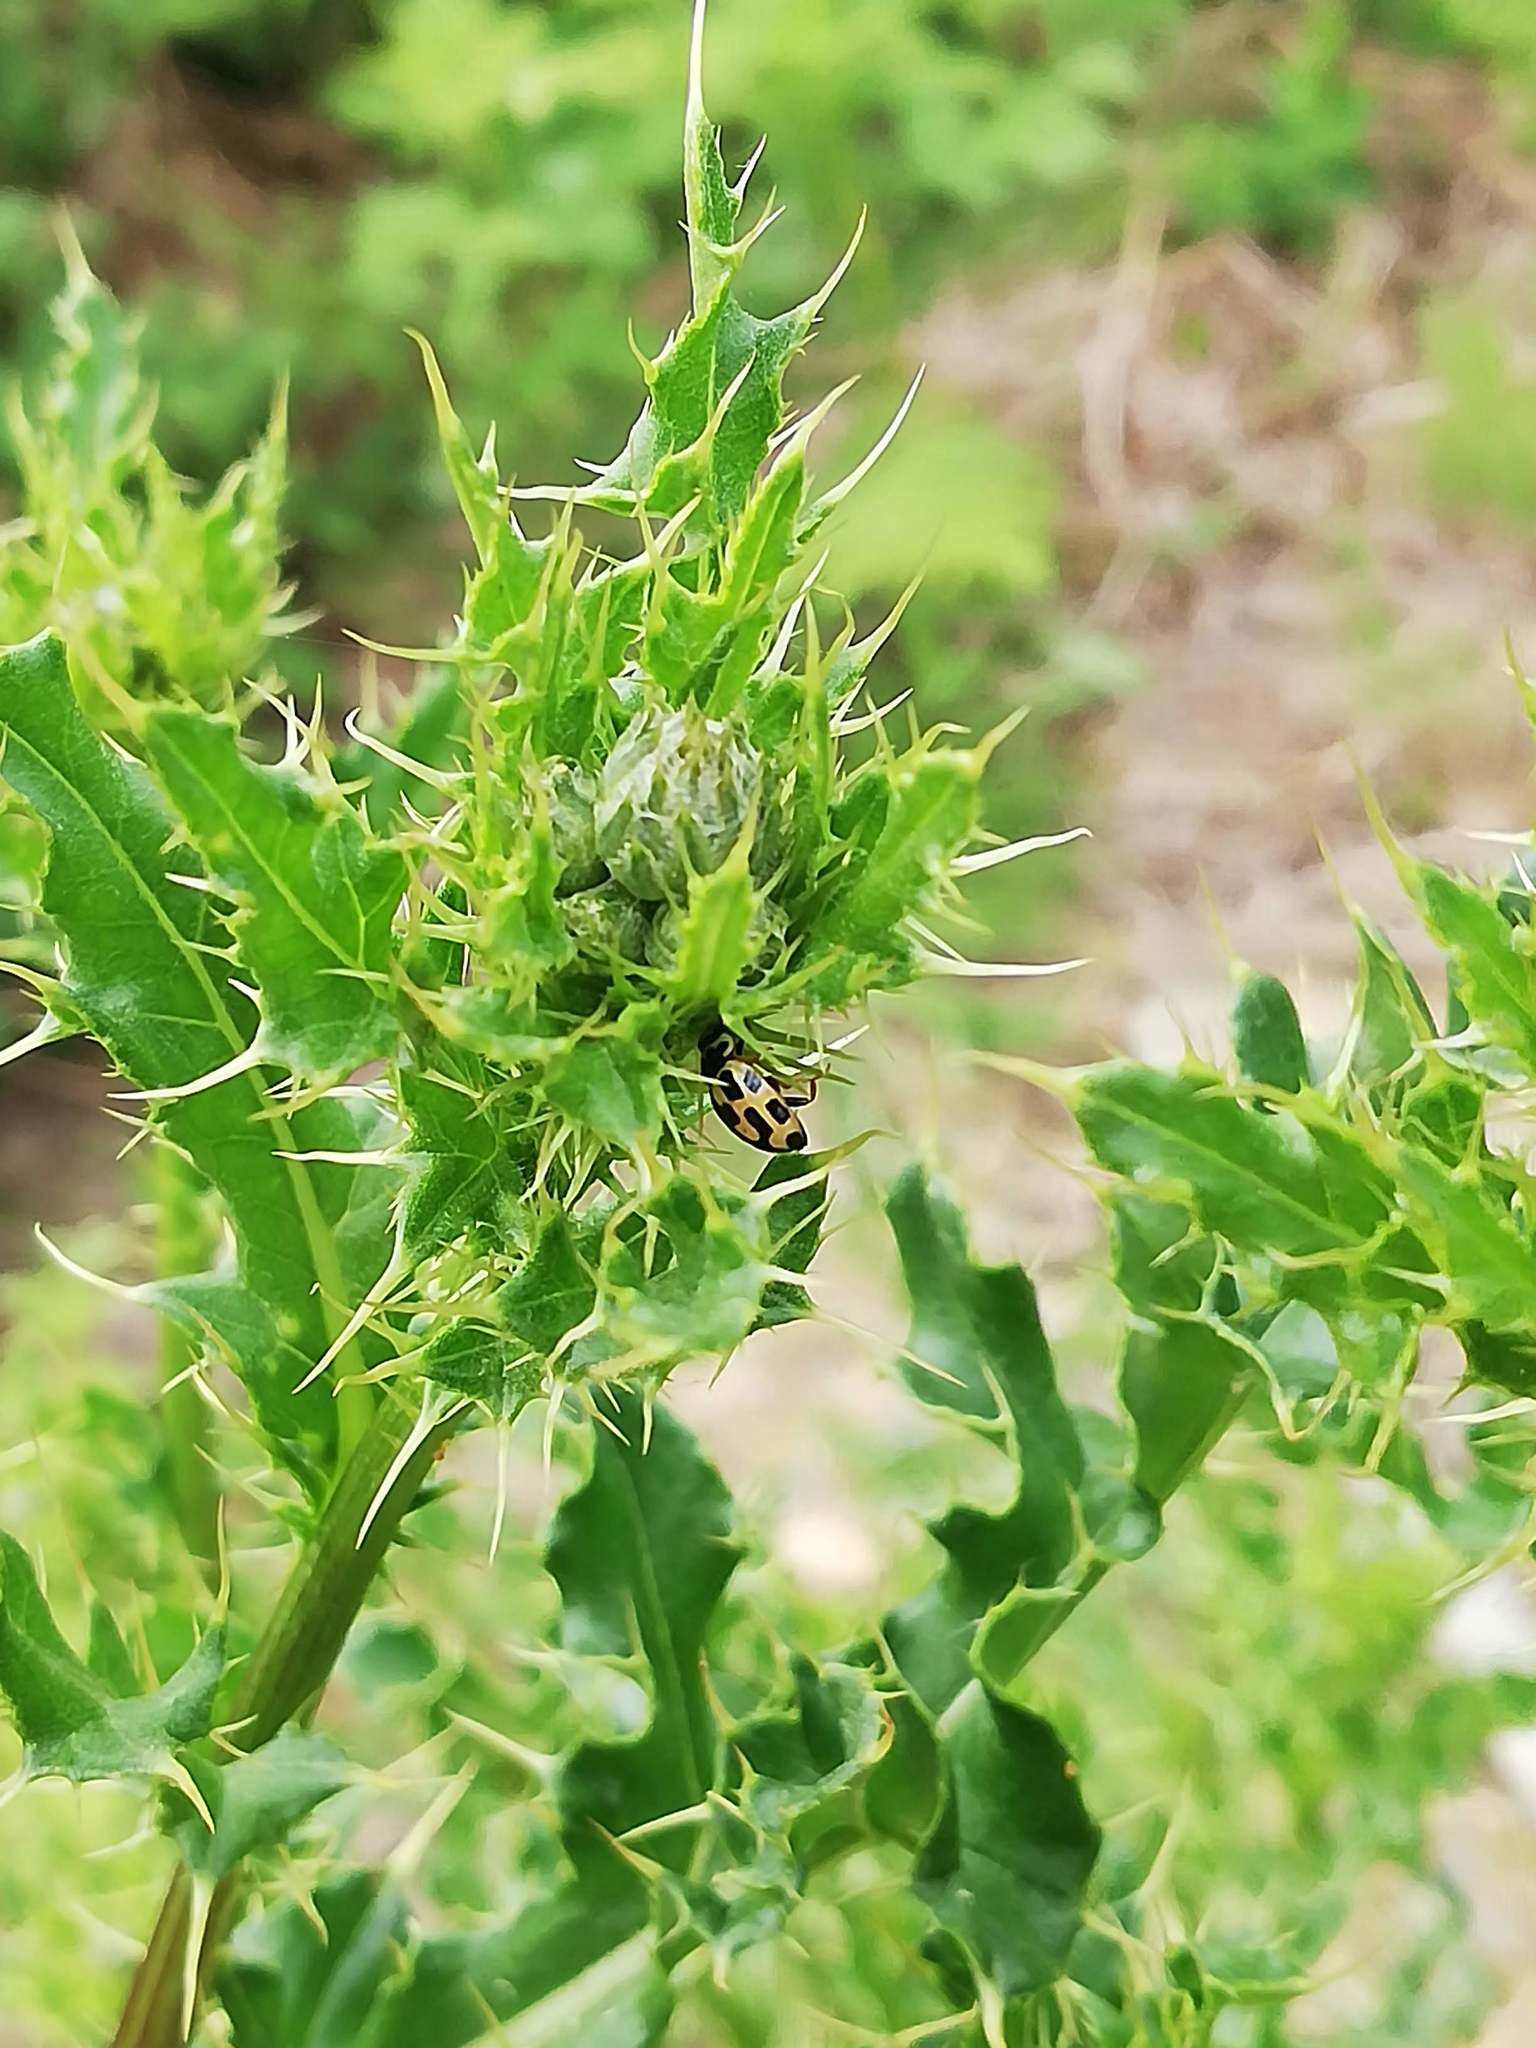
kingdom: Animalia
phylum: Arthropoda
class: Insecta
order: Coleoptera
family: Coccinellidae
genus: Propylaea
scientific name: Propylaea quatuordecimpunctata
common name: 14-spotted ladybird beetle
